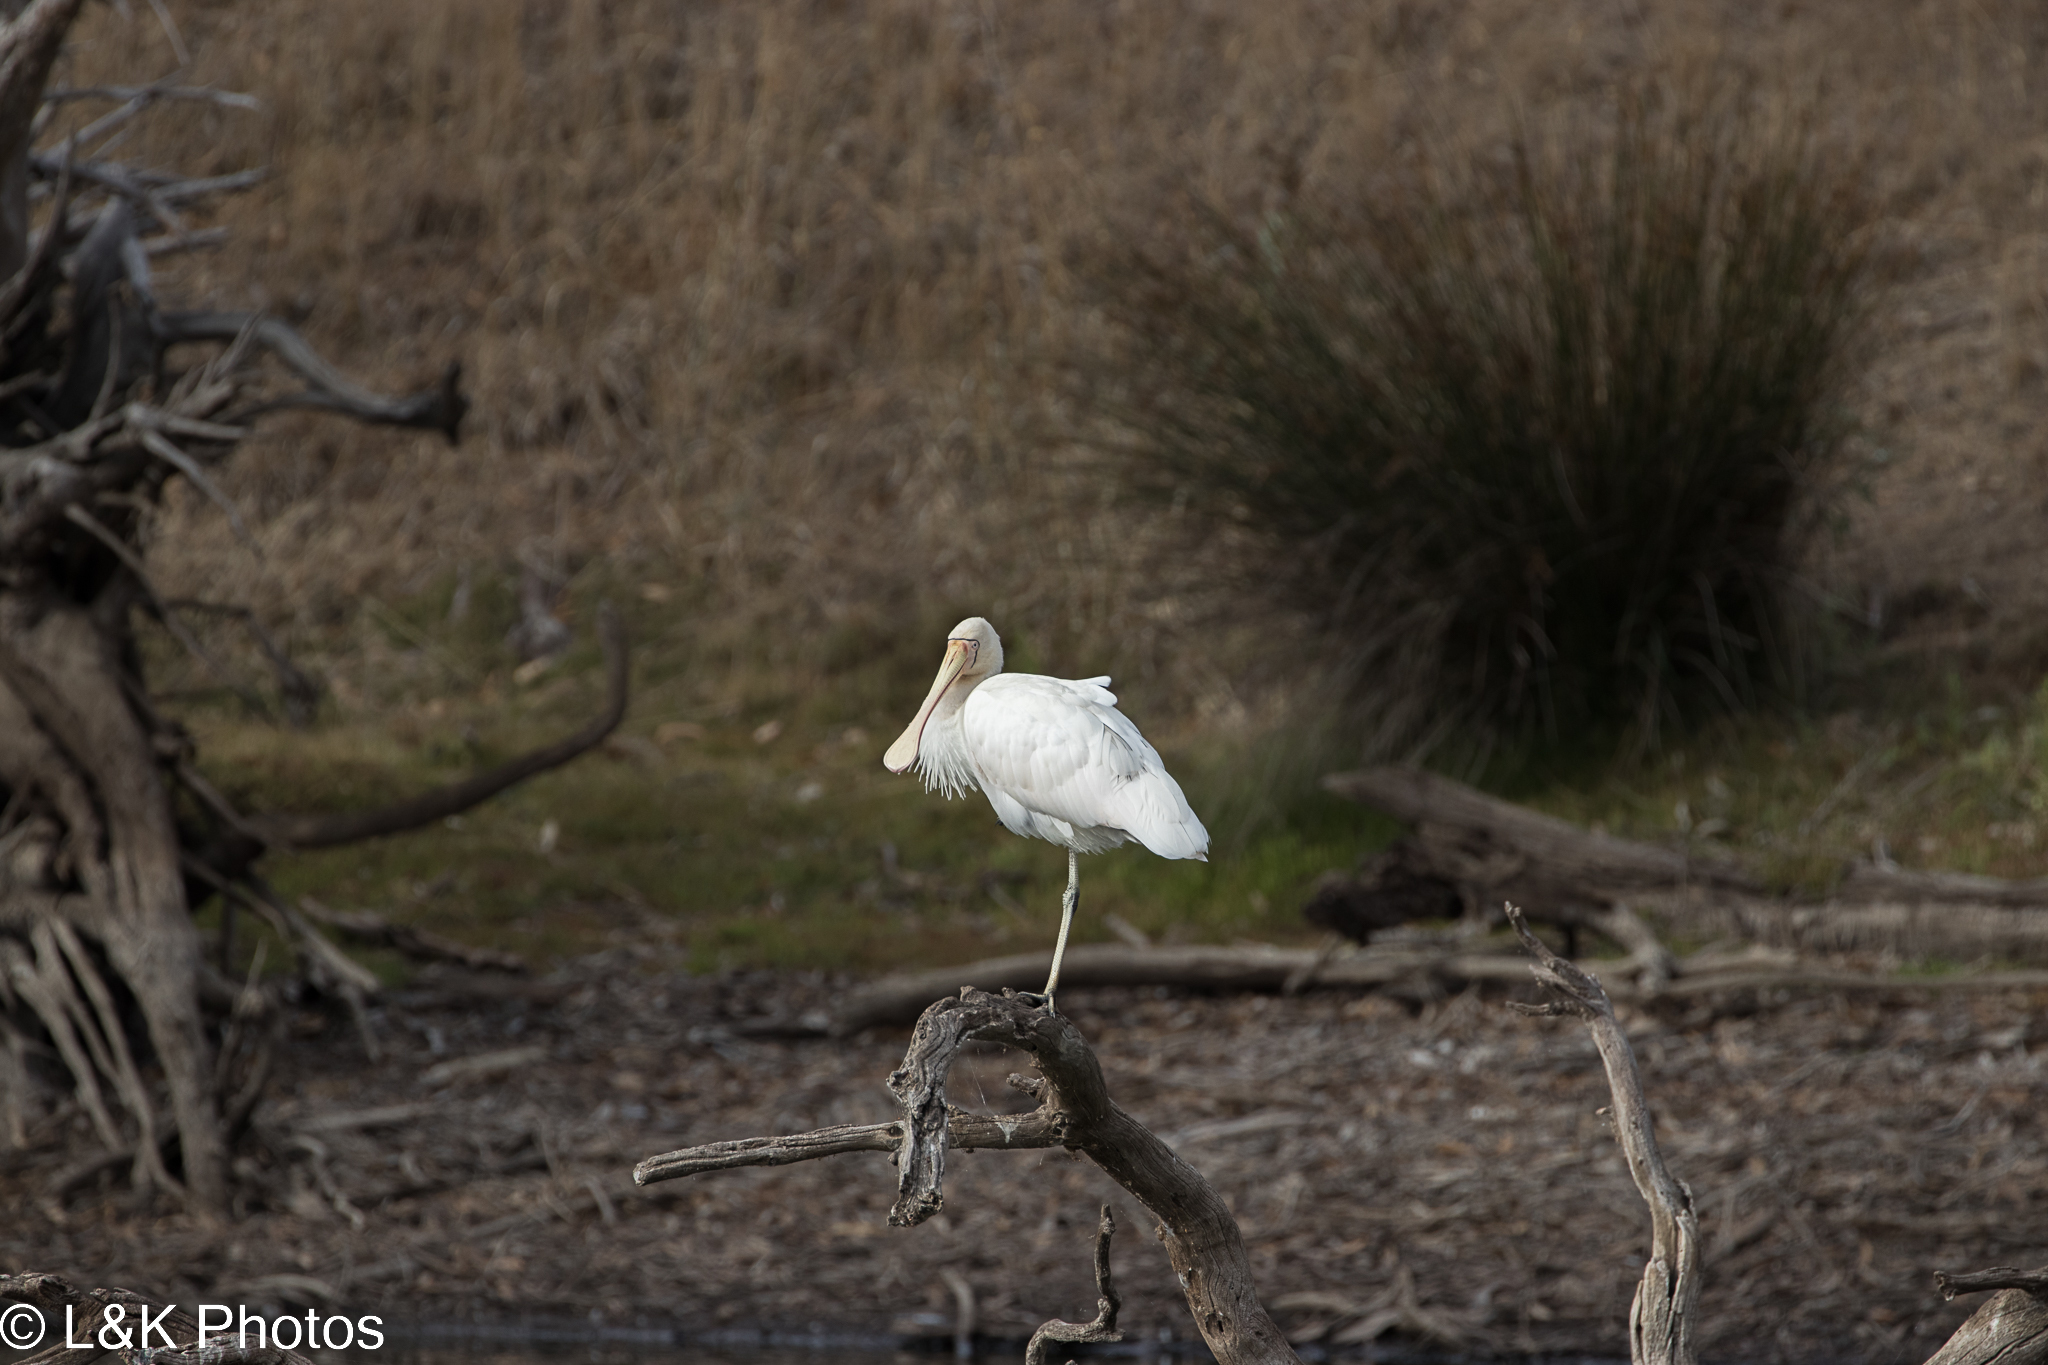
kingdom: Animalia
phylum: Chordata
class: Aves
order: Pelecaniformes
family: Threskiornithidae
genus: Platalea
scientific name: Platalea flavipes
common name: Yellow-billed spoonbill
